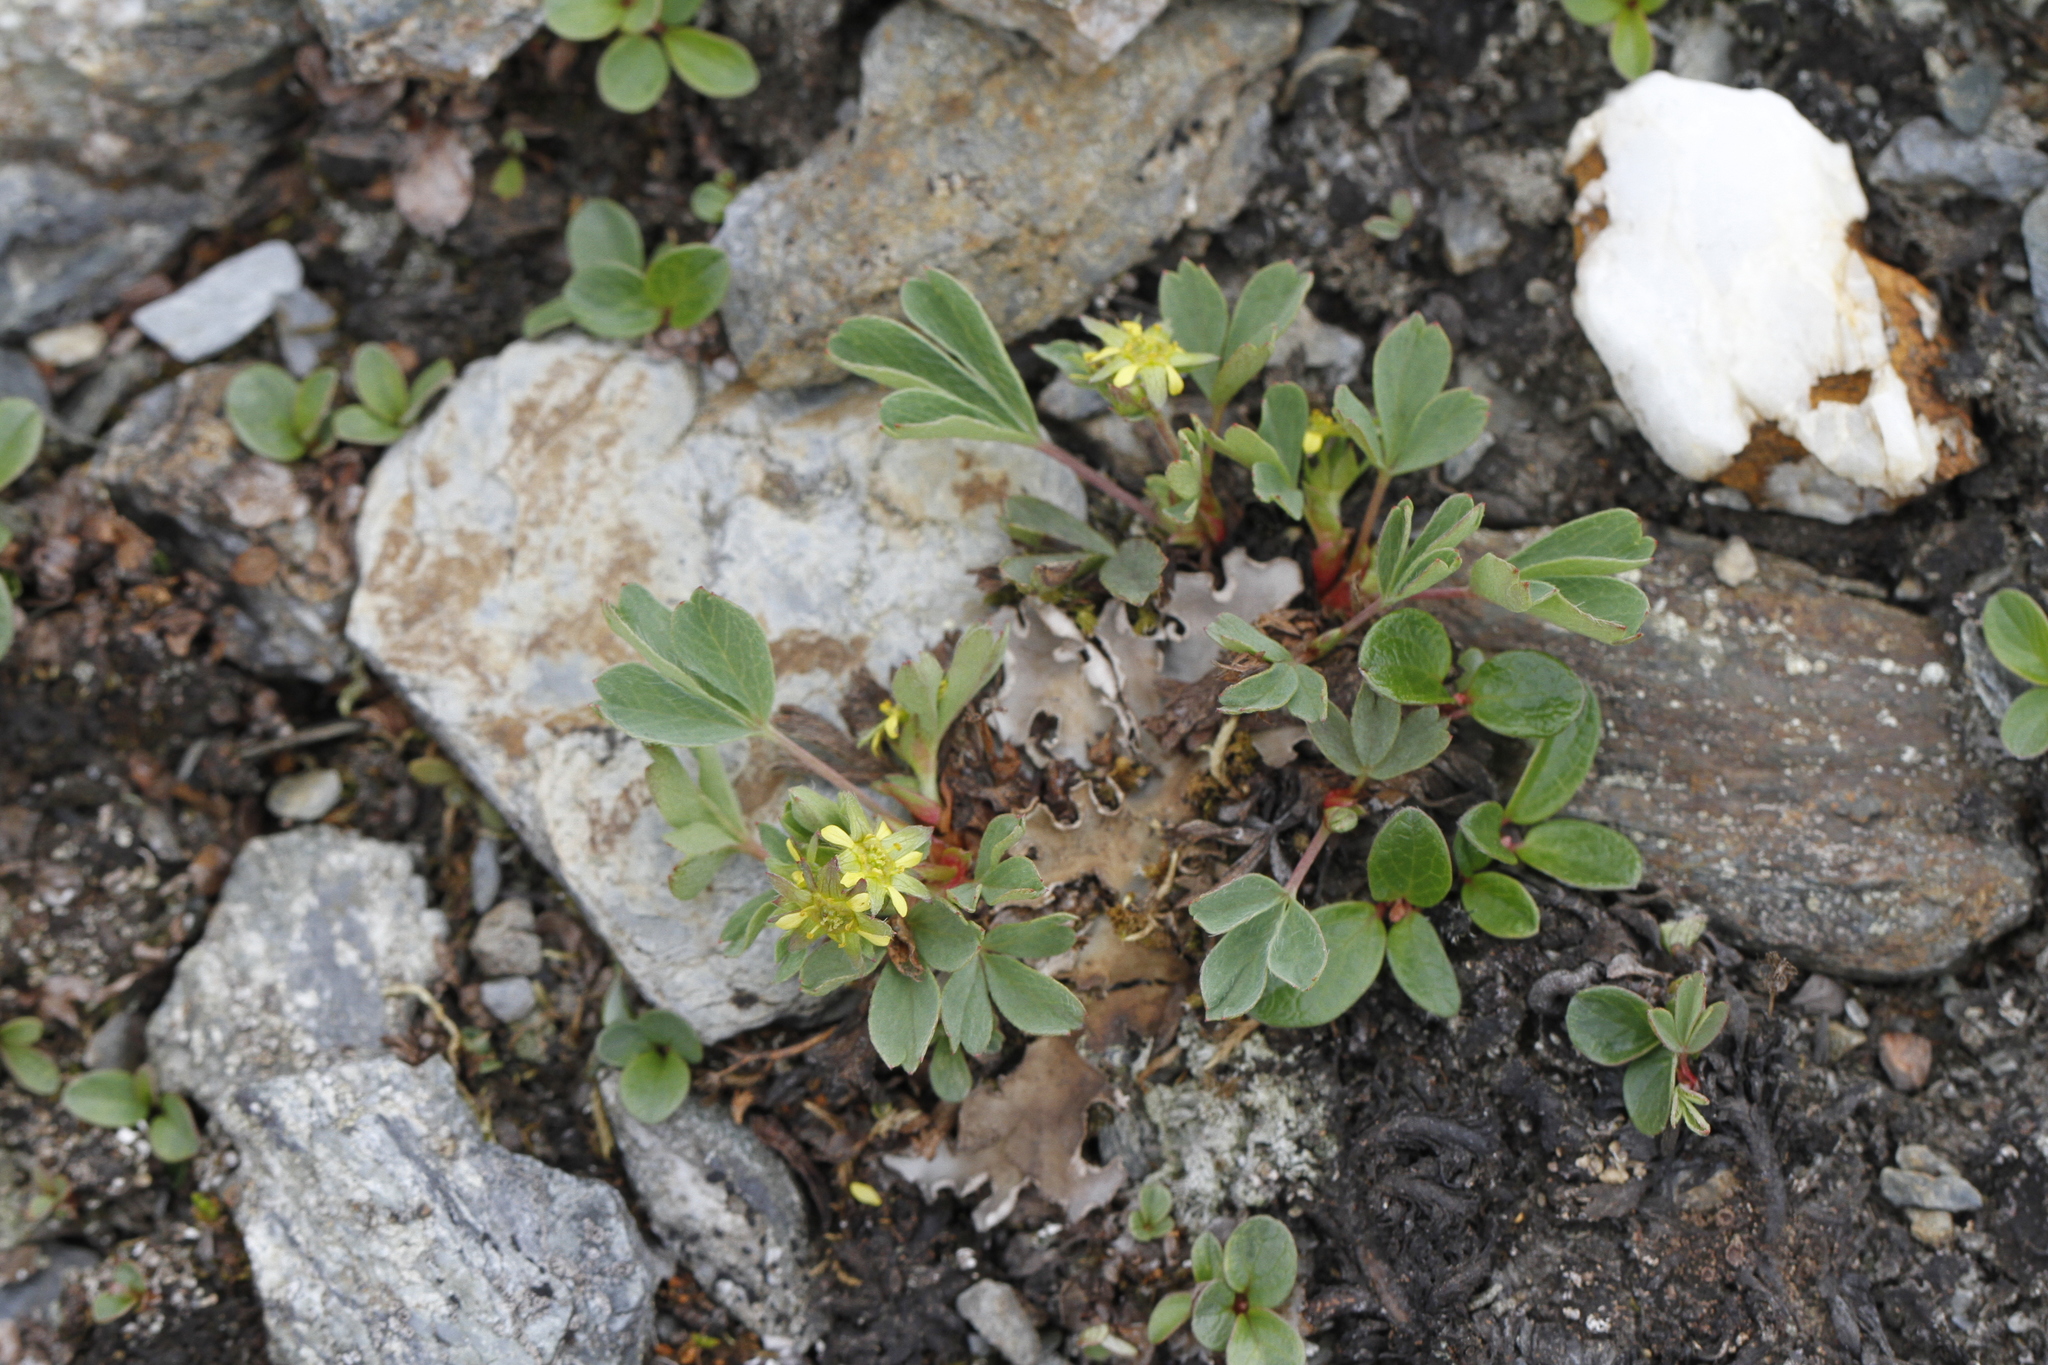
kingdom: Plantae
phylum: Tracheophyta
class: Magnoliopsida
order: Rosales
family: Rosaceae
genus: Sibbaldia
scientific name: Sibbaldia procumbens
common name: Creeping sibbaldia
